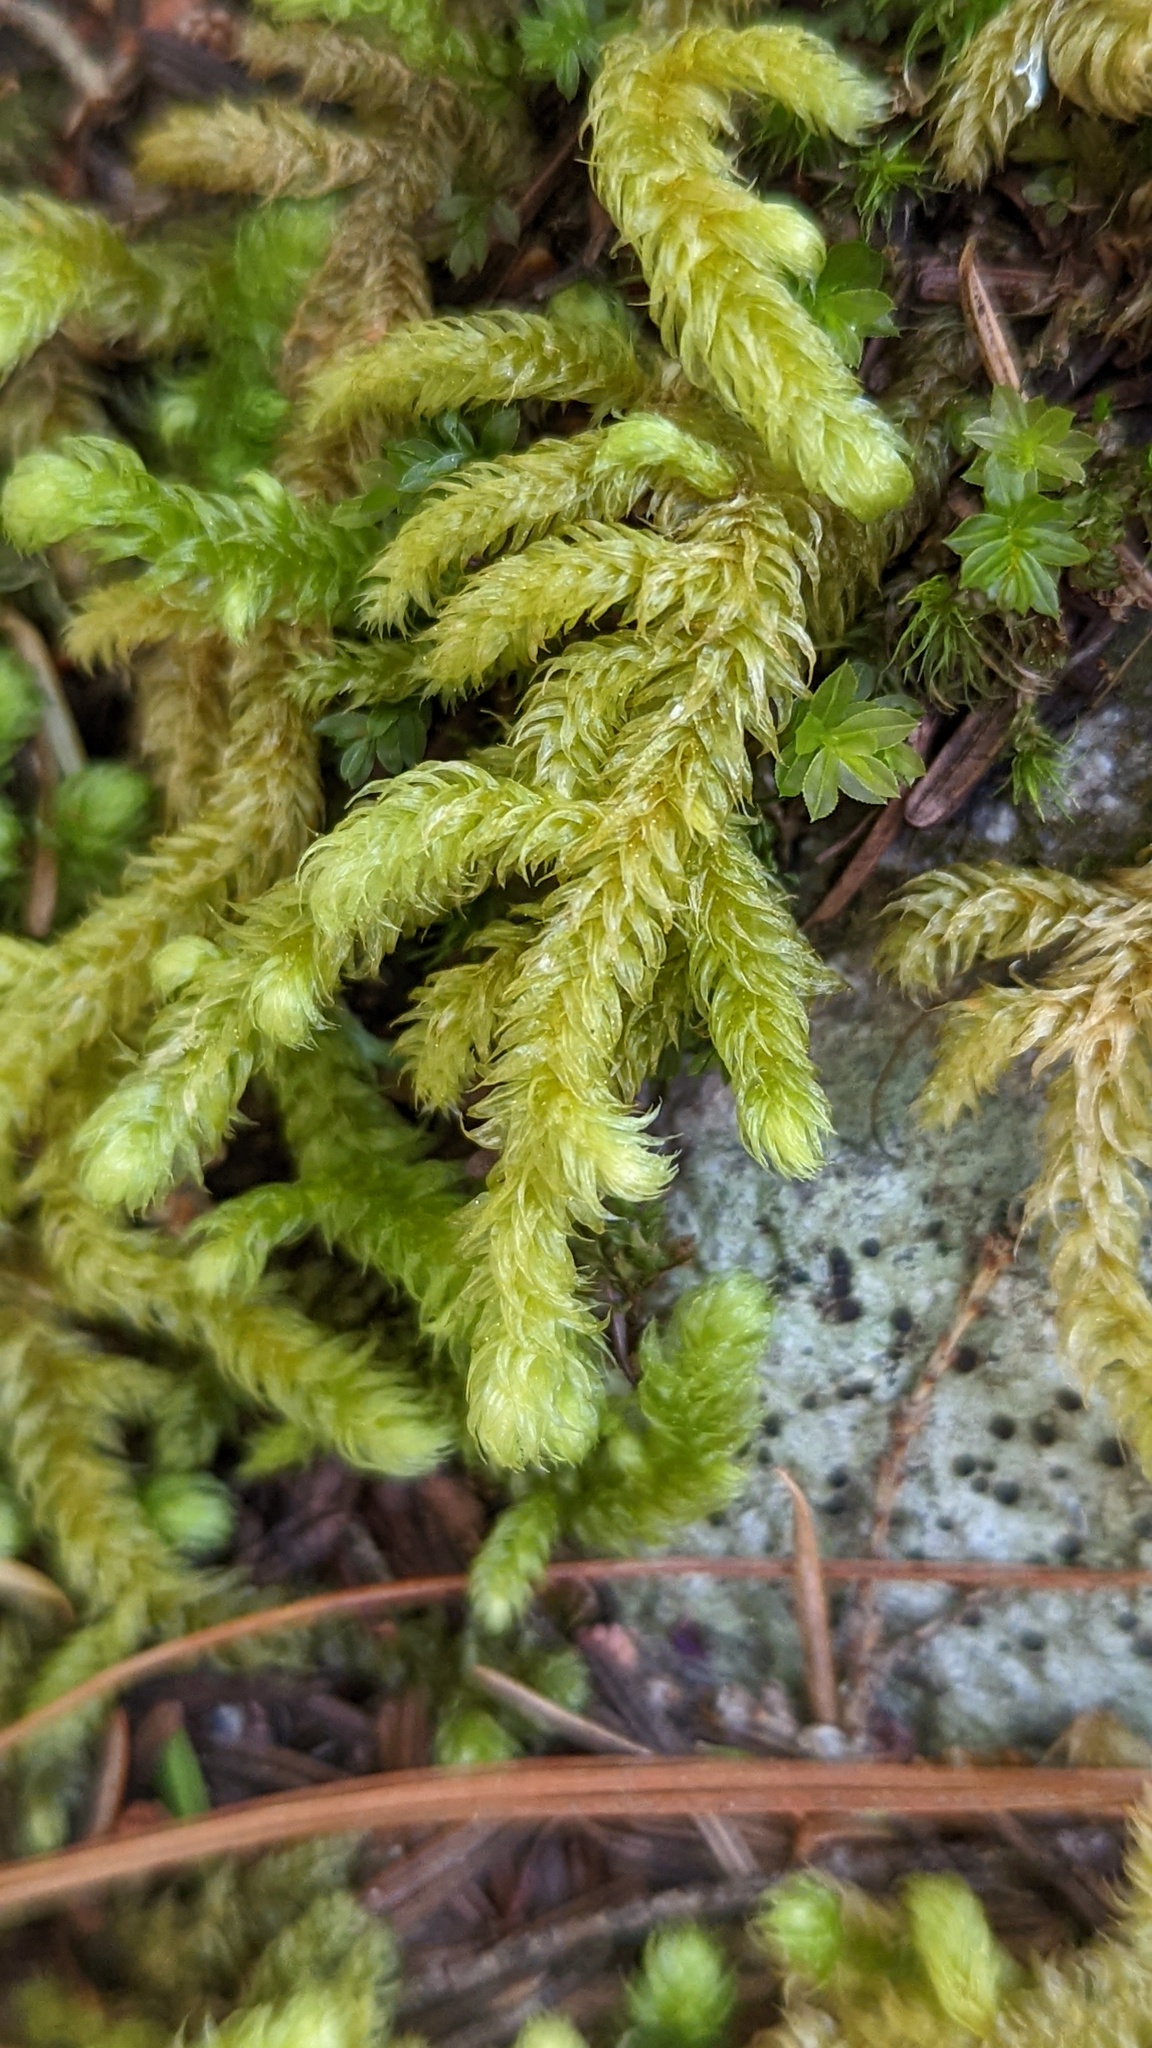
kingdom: Plantae
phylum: Bryophyta
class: Bryopsida
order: Hypnales
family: Hylocomiaceae
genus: Rhytidiopsis
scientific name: Rhytidiopsis robusta
